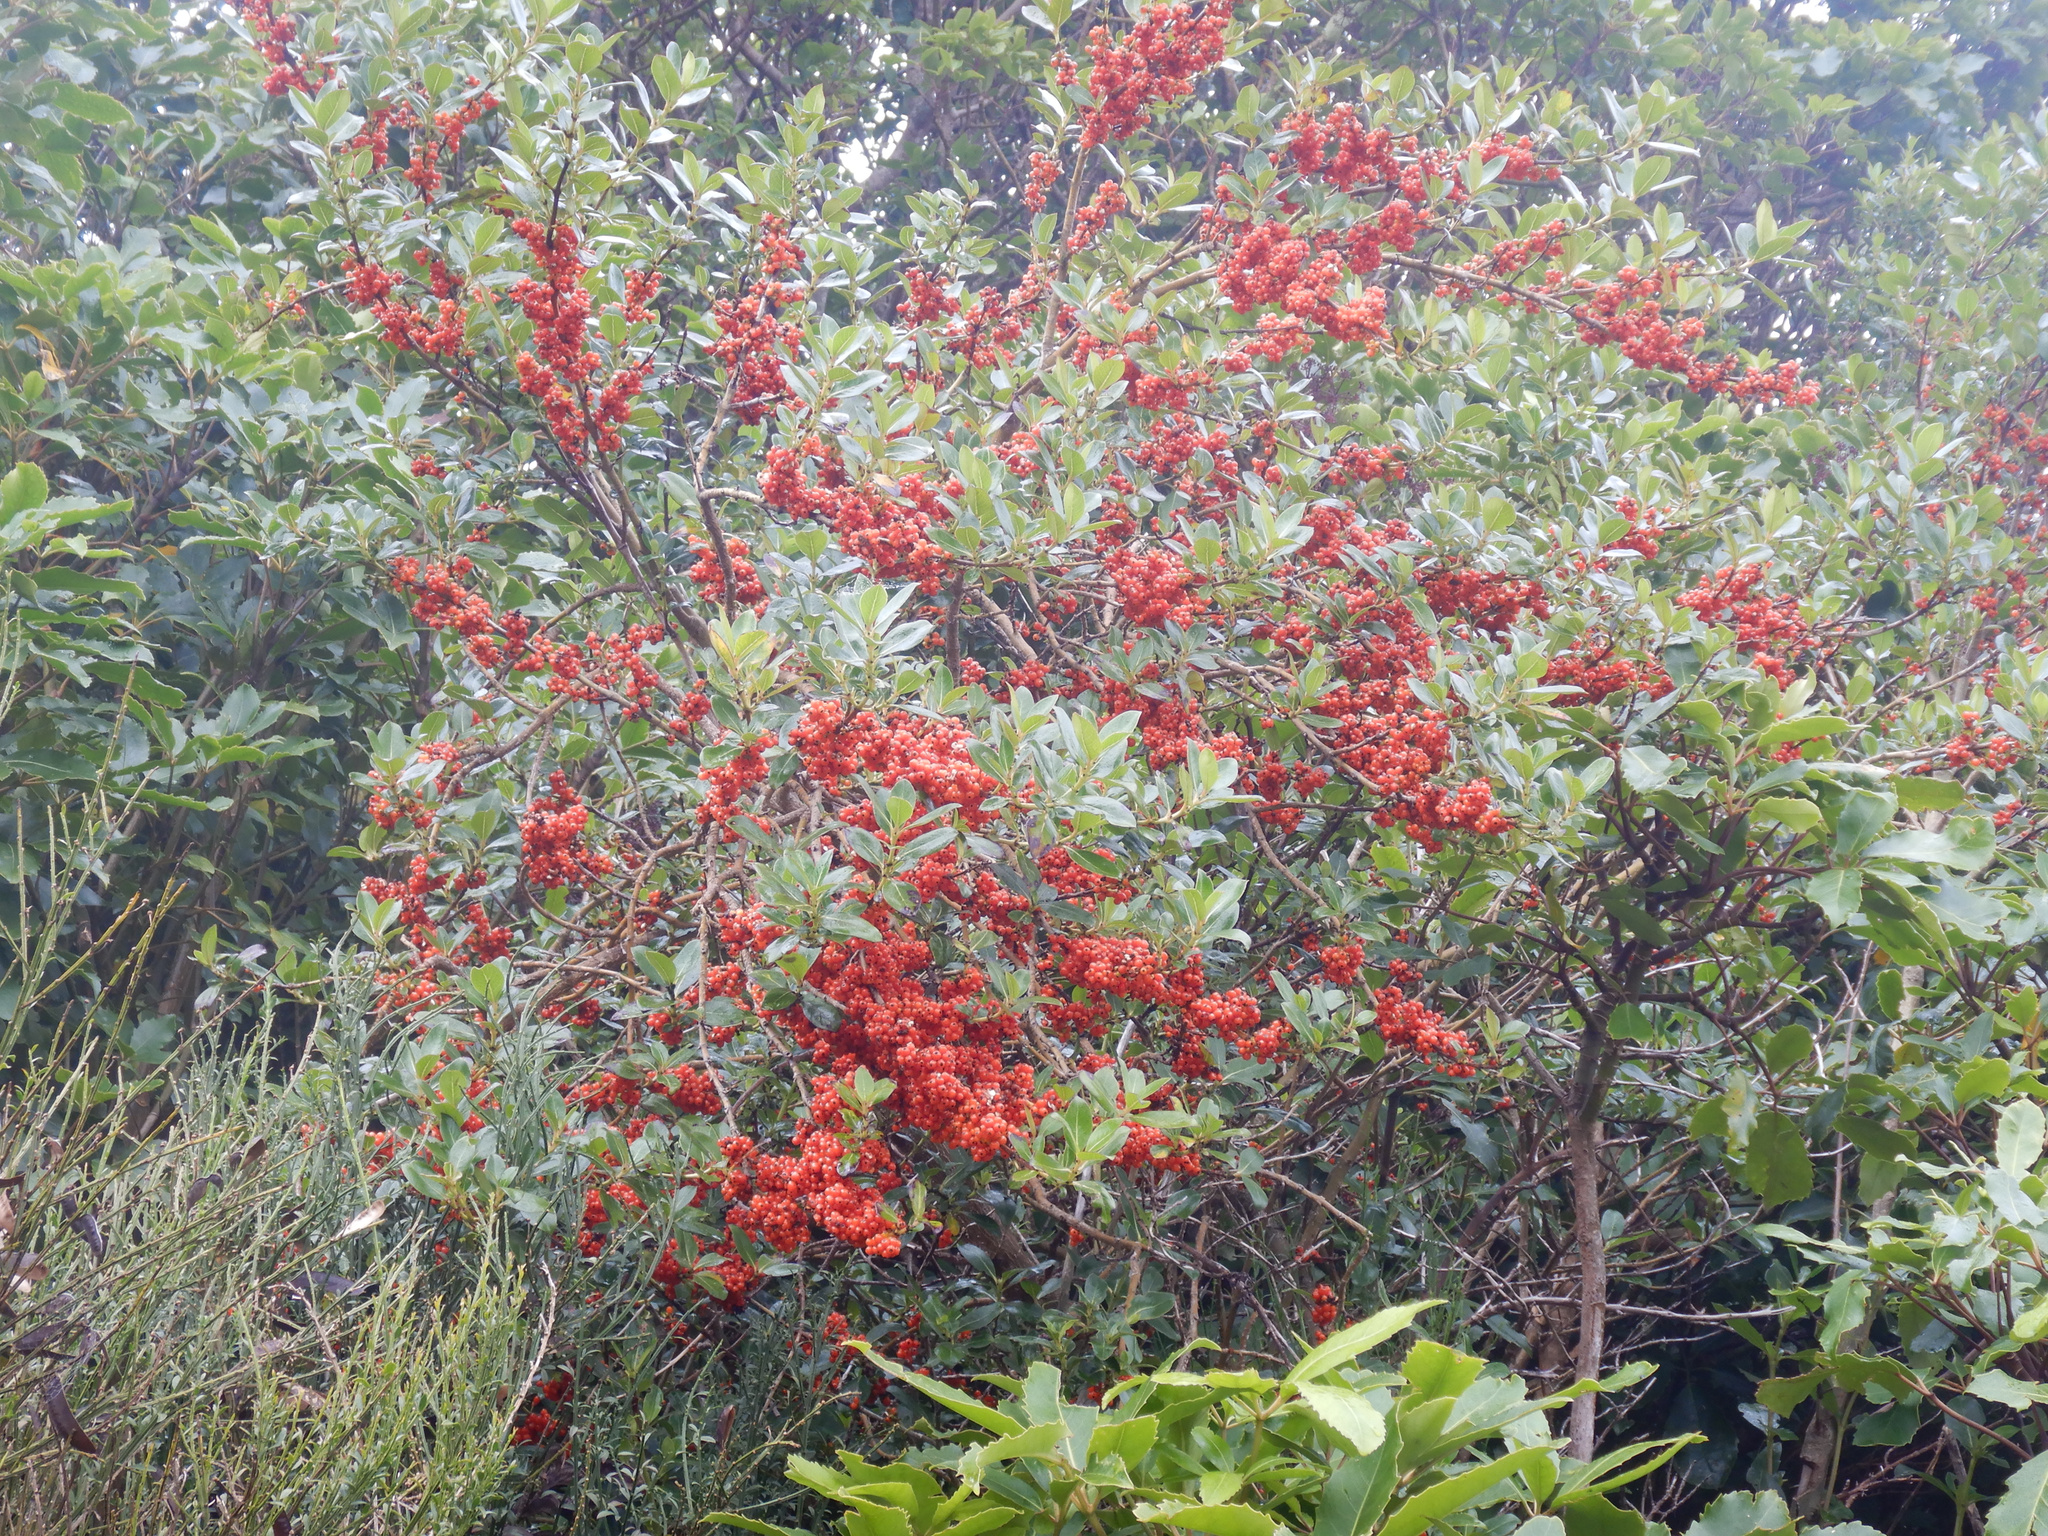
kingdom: Plantae
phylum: Tracheophyta
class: Magnoliopsida
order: Gentianales
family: Rubiaceae
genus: Coprosma
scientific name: Coprosma robusta
